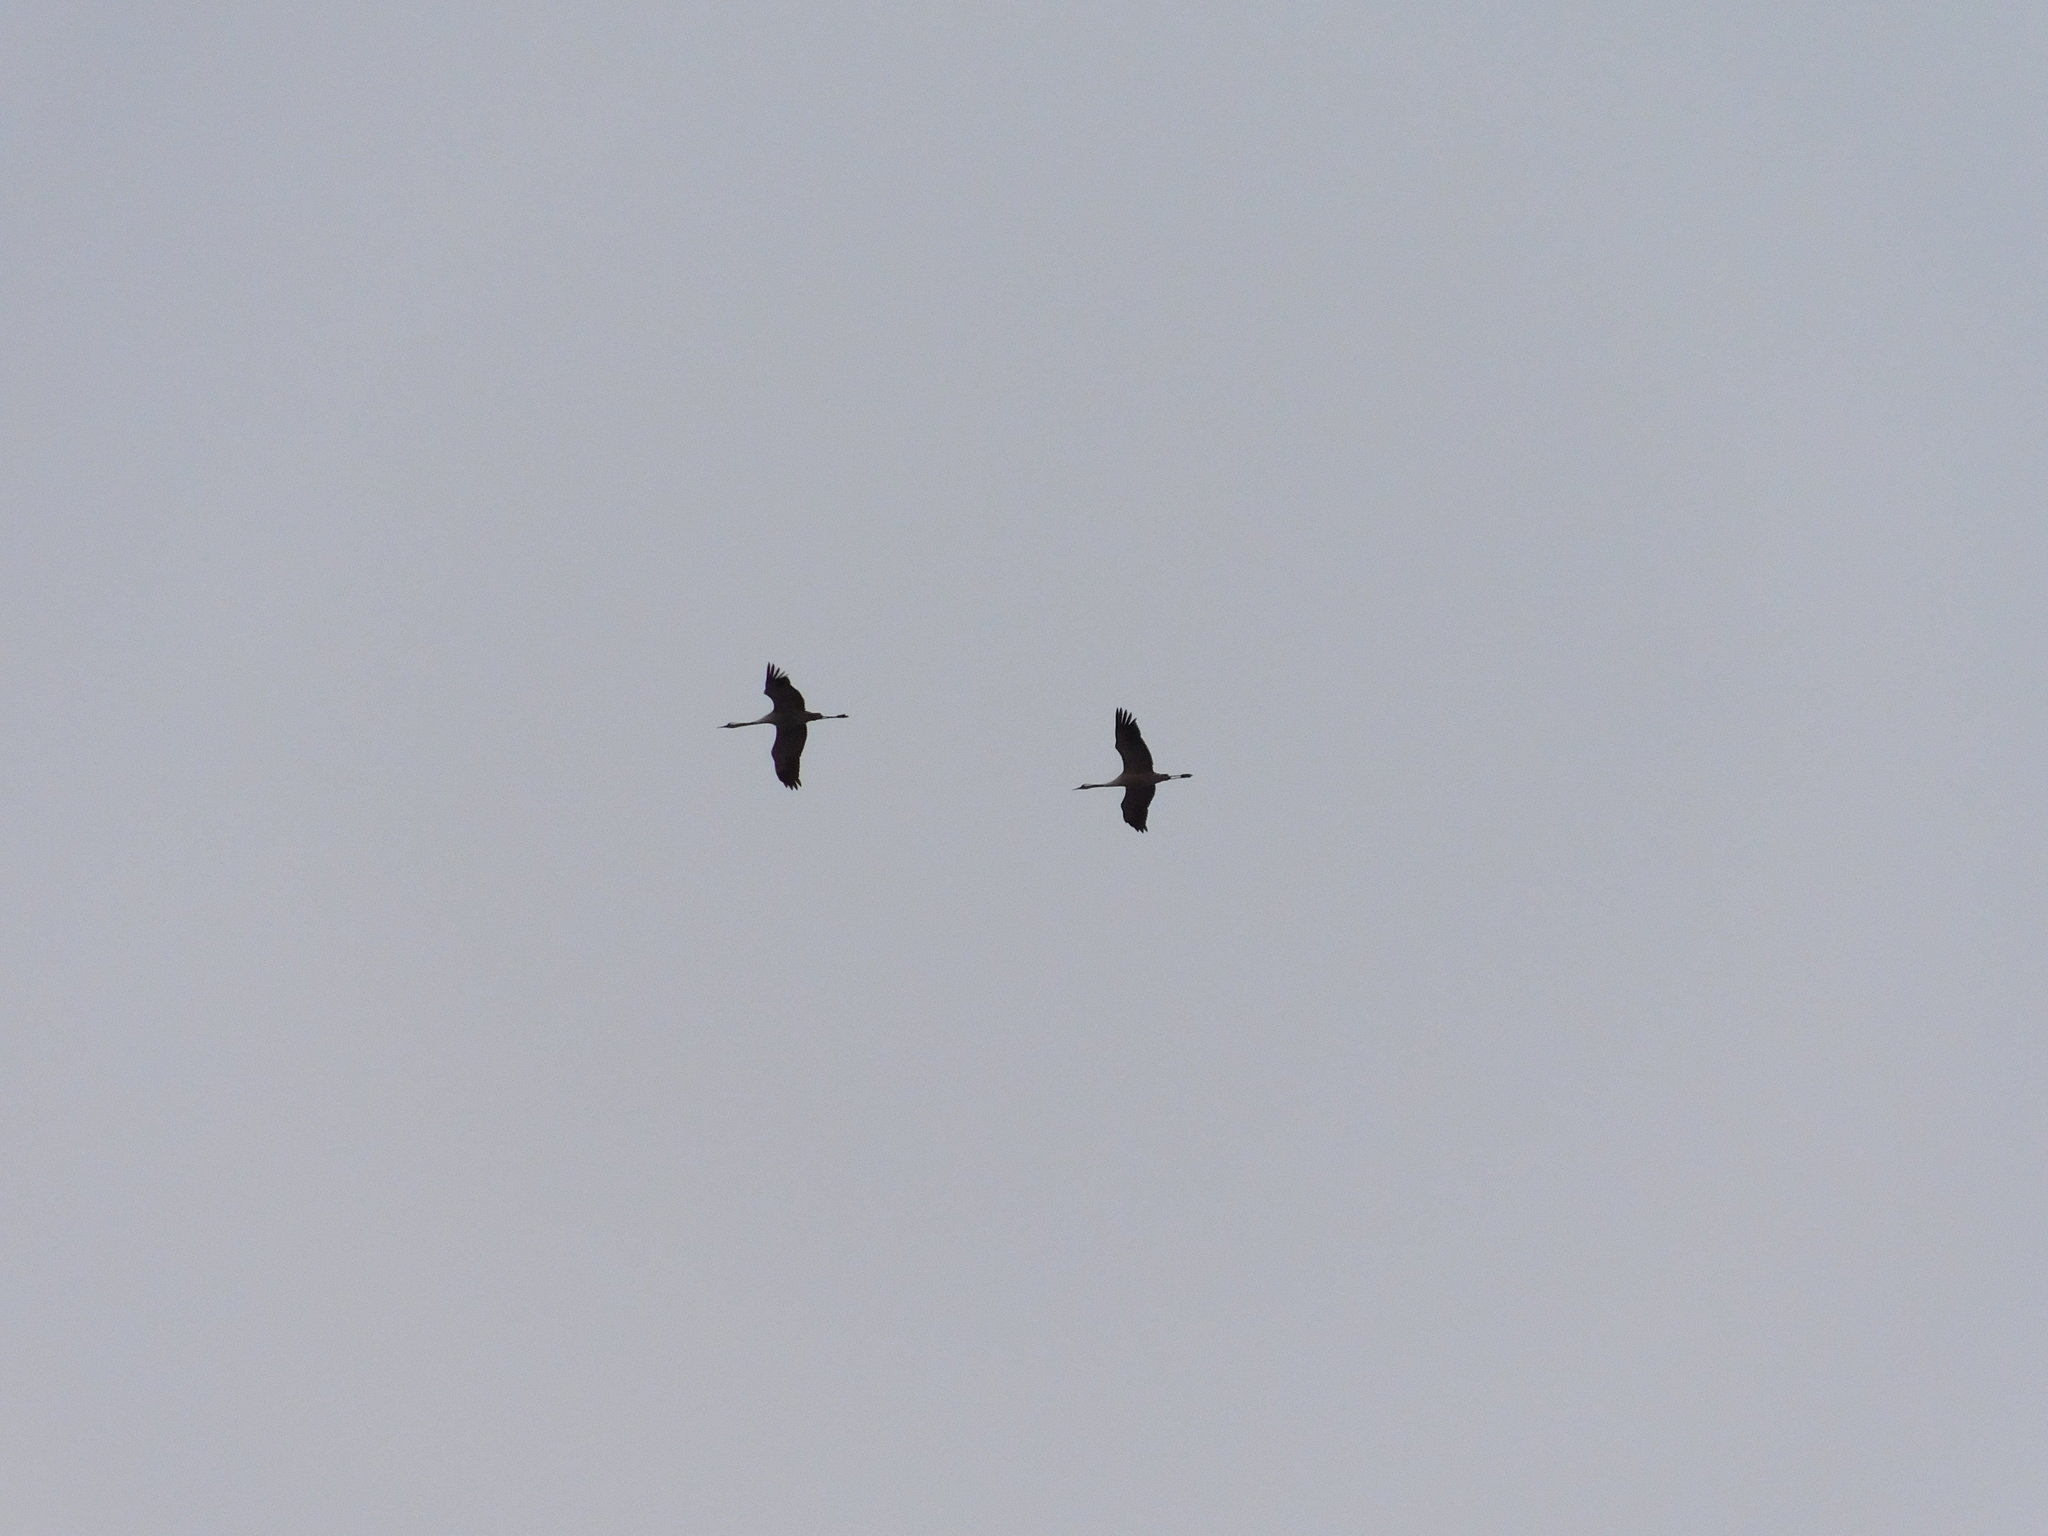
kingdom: Animalia
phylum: Chordata
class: Aves
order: Gruiformes
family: Gruidae
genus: Grus
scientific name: Grus grus
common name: Common crane
